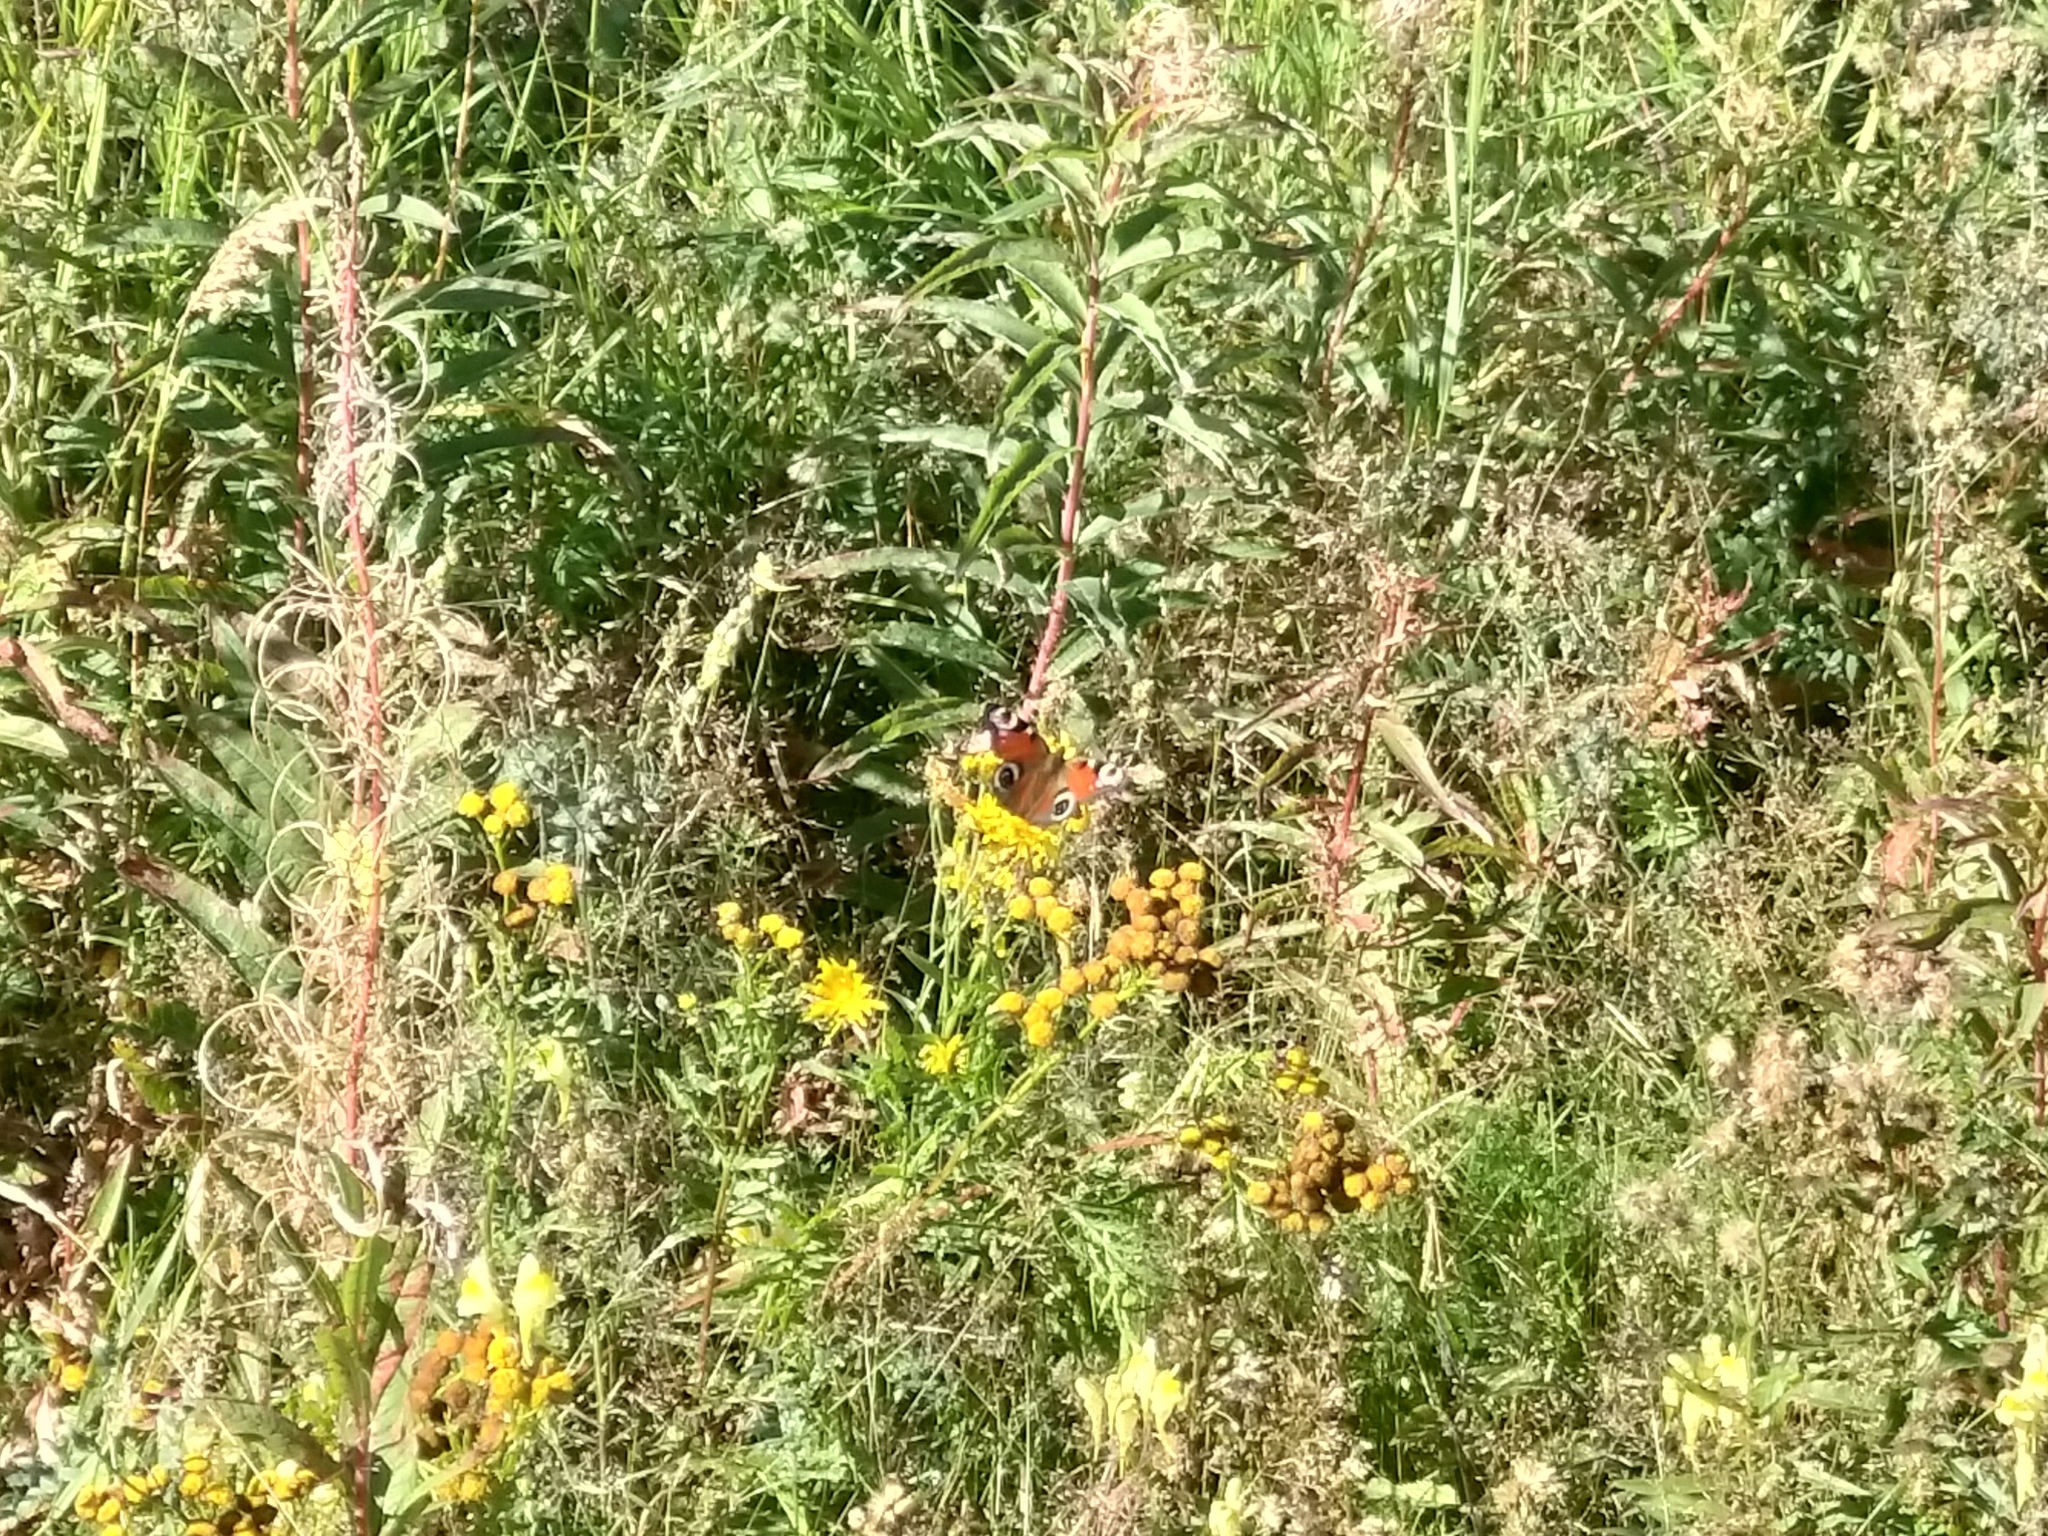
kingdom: Animalia
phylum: Arthropoda
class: Insecta
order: Lepidoptera
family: Nymphalidae
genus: Aglais
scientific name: Aglais io
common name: Peacock
